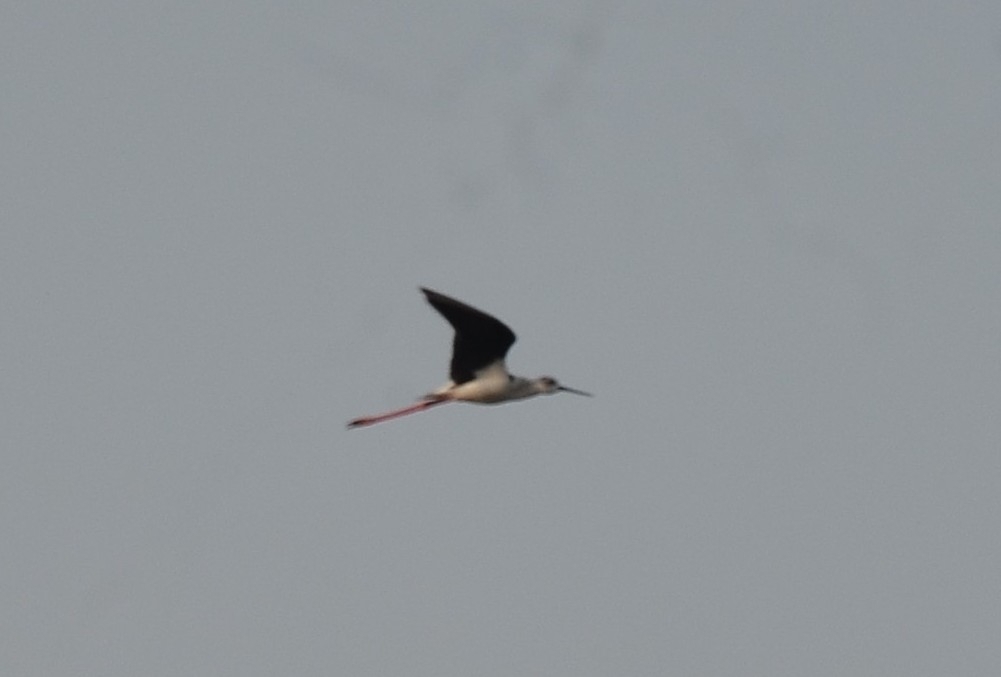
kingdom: Animalia
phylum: Chordata
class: Aves
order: Charadriiformes
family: Recurvirostridae
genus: Himantopus
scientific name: Himantopus himantopus
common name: Black-winged stilt
